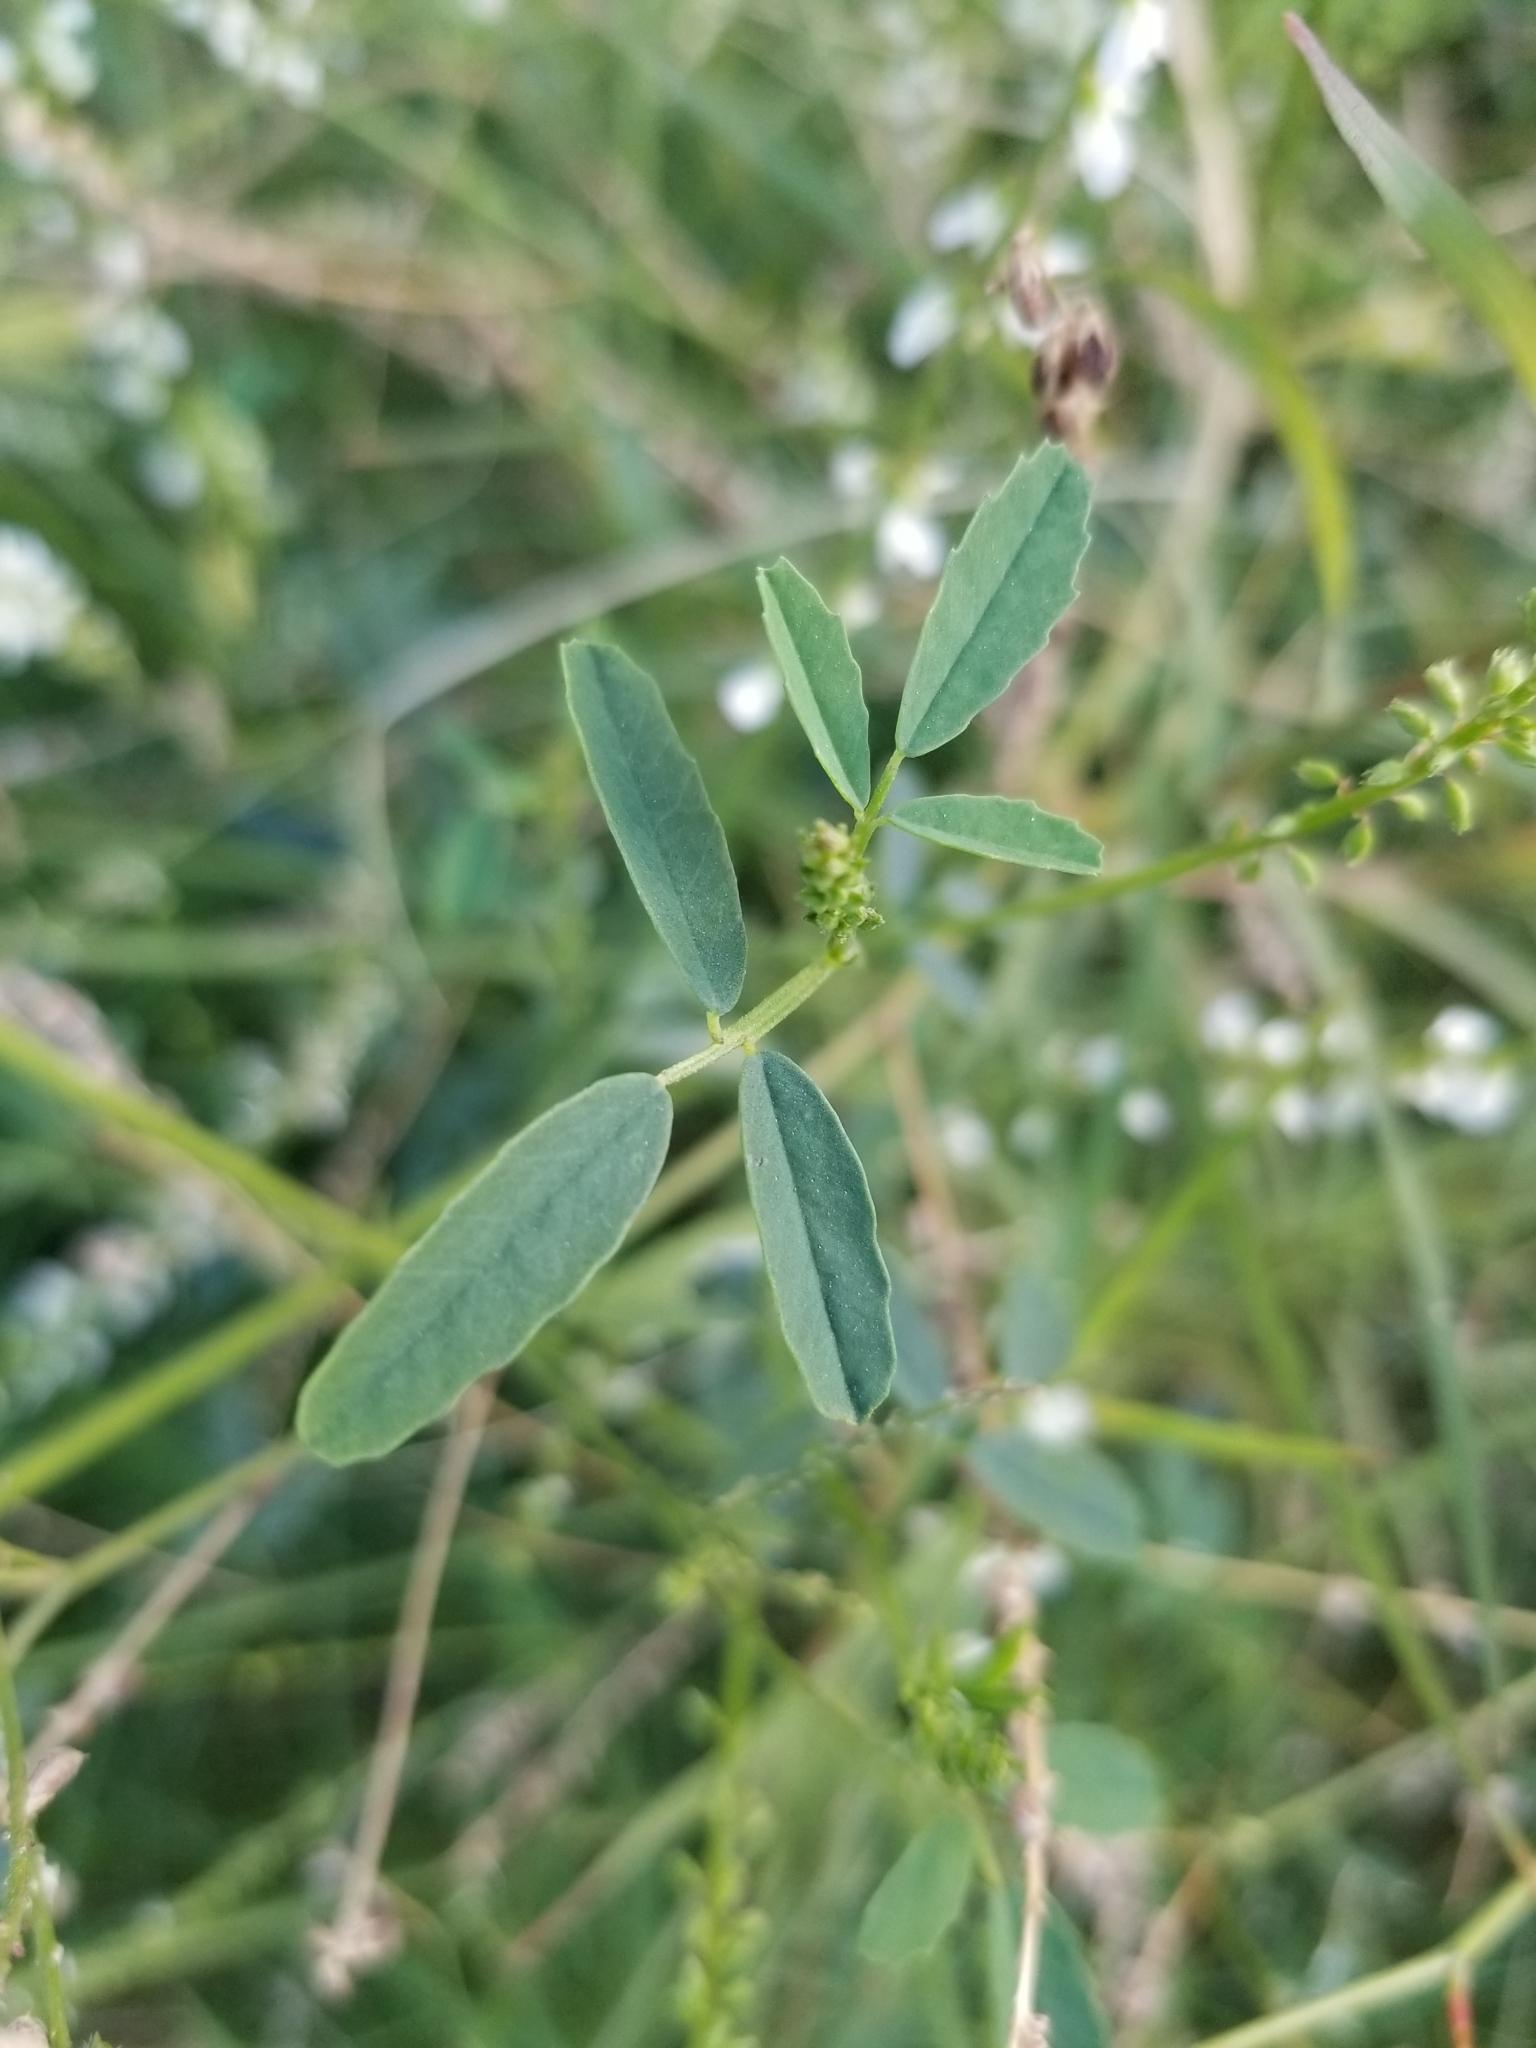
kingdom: Plantae
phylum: Tracheophyta
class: Magnoliopsida
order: Fabales
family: Fabaceae
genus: Melilotus
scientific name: Melilotus albus
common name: White melilot
